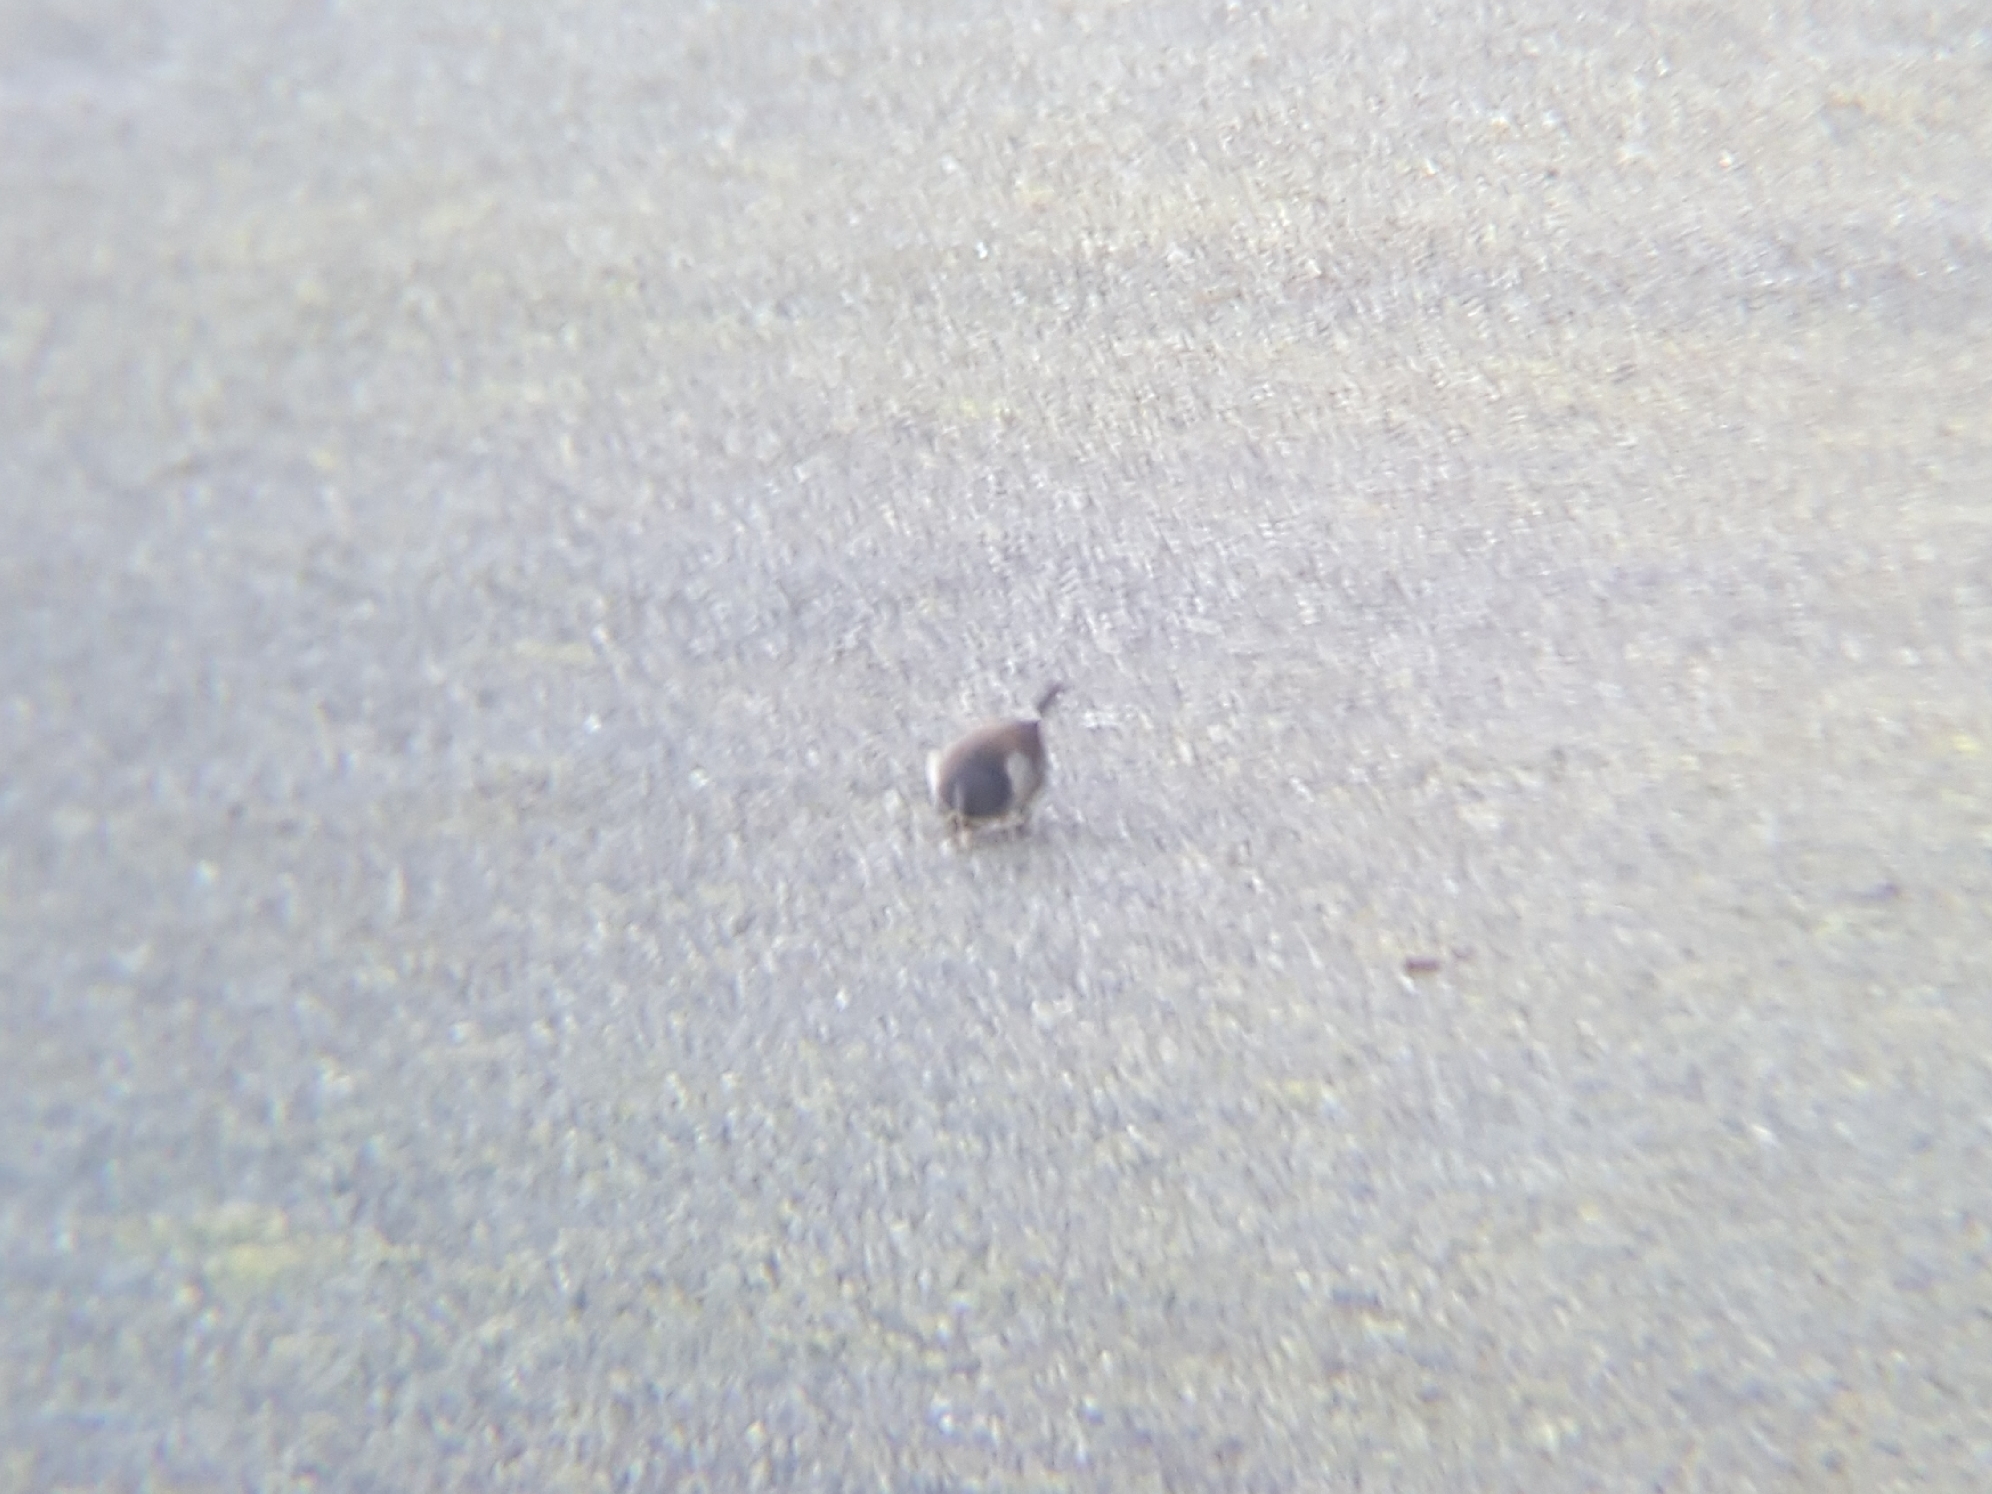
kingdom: Animalia
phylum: Chordata
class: Aves
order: Passeriformes
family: Passerellidae
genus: Junco
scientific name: Junco hyemalis
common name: Dark-eyed junco
